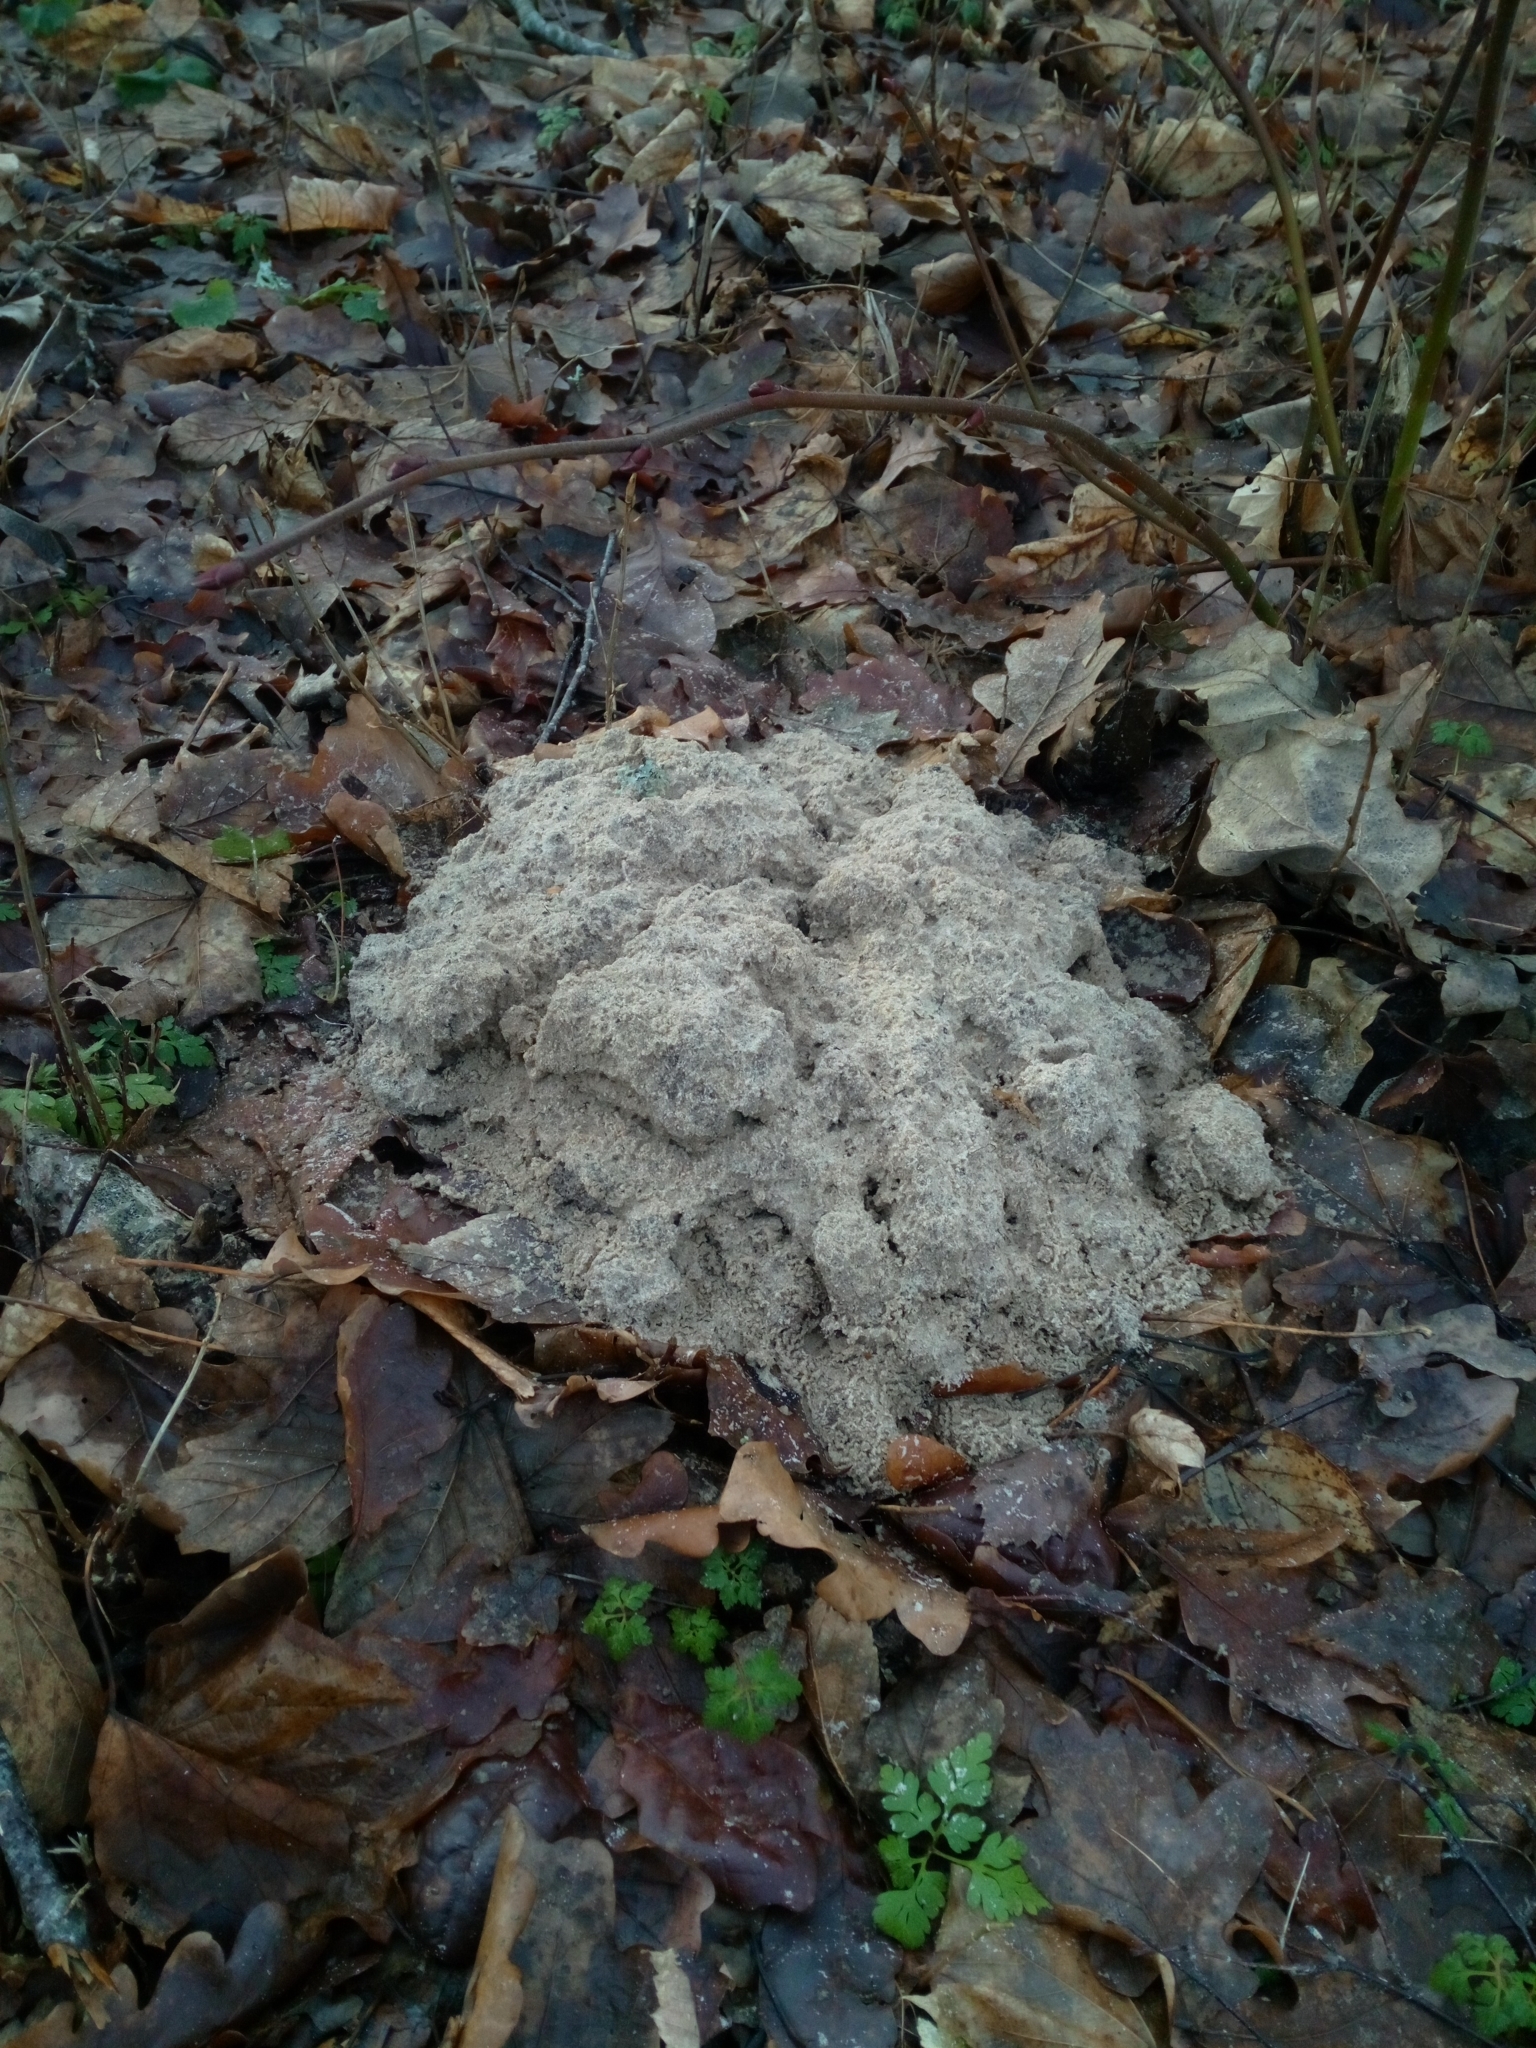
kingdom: Animalia
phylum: Chordata
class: Mammalia
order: Soricomorpha
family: Talpidae
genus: Talpa
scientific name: Talpa europaea
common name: European mole
